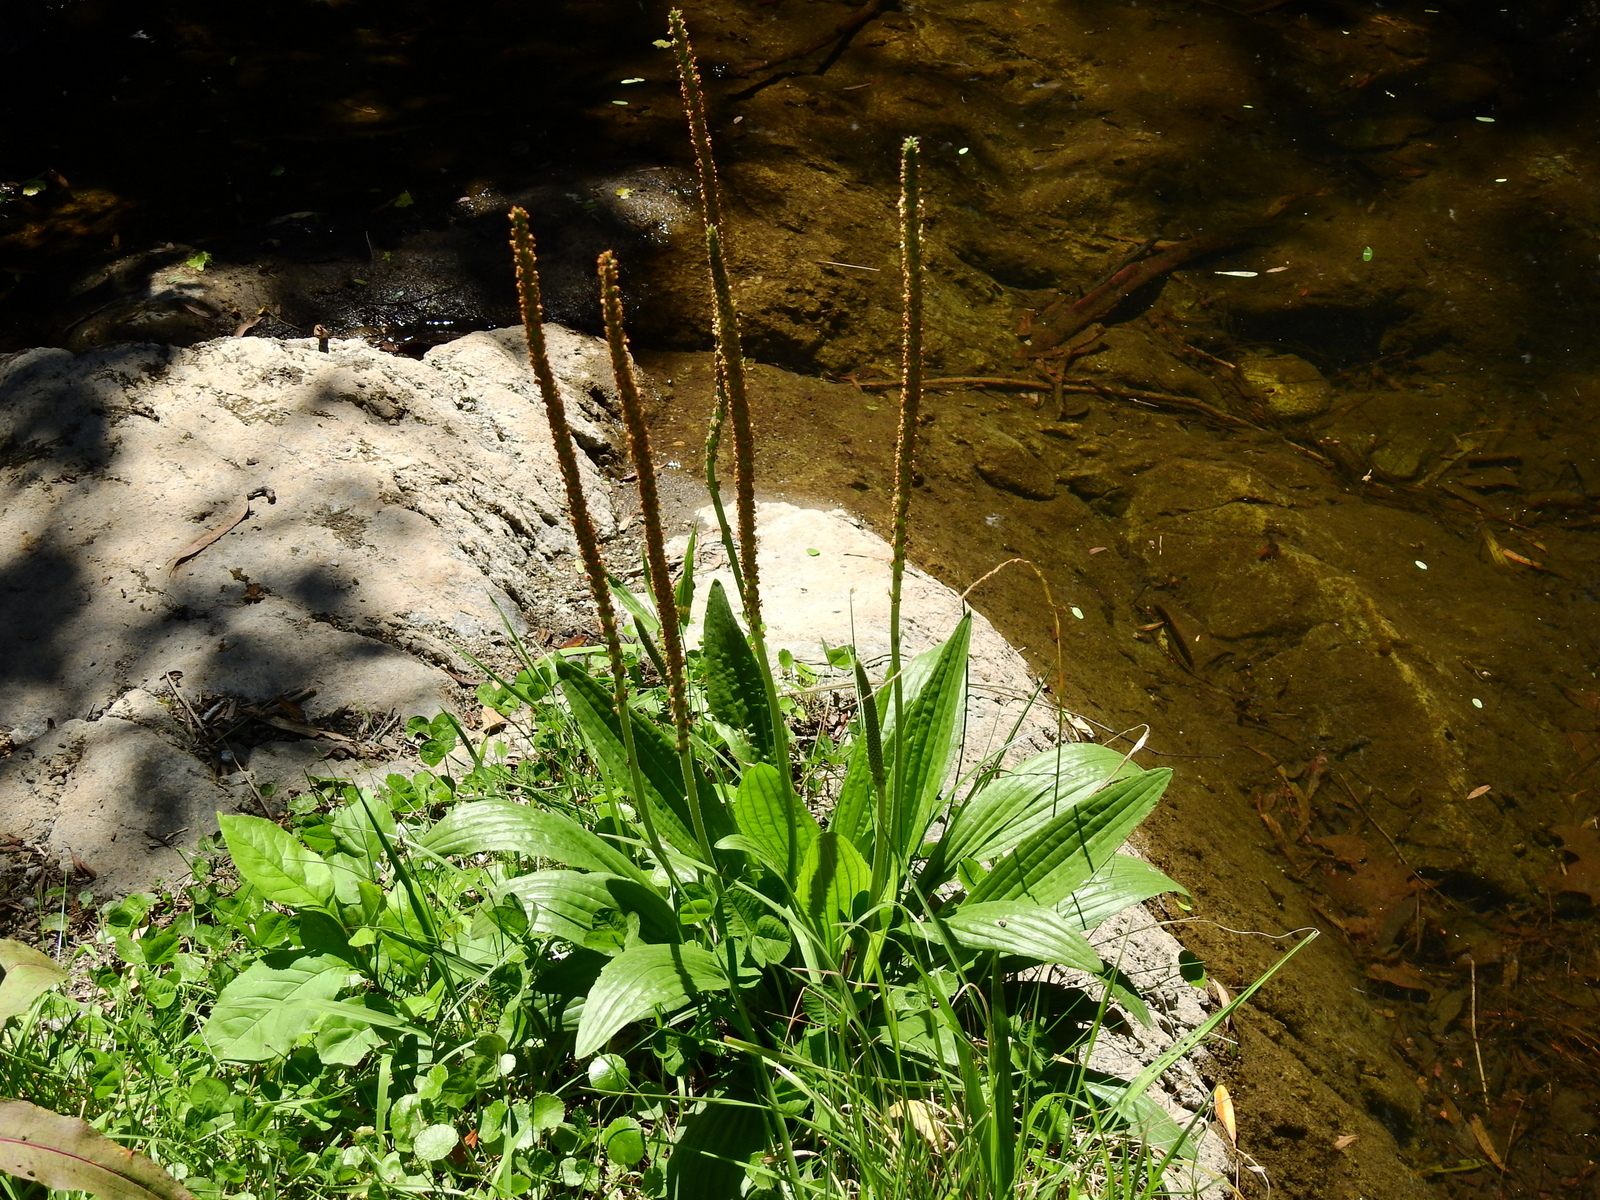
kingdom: Plantae
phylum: Tracheophyta
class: Magnoliopsida
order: Lamiales
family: Plantaginaceae
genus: Plantago
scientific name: Plantago australis
